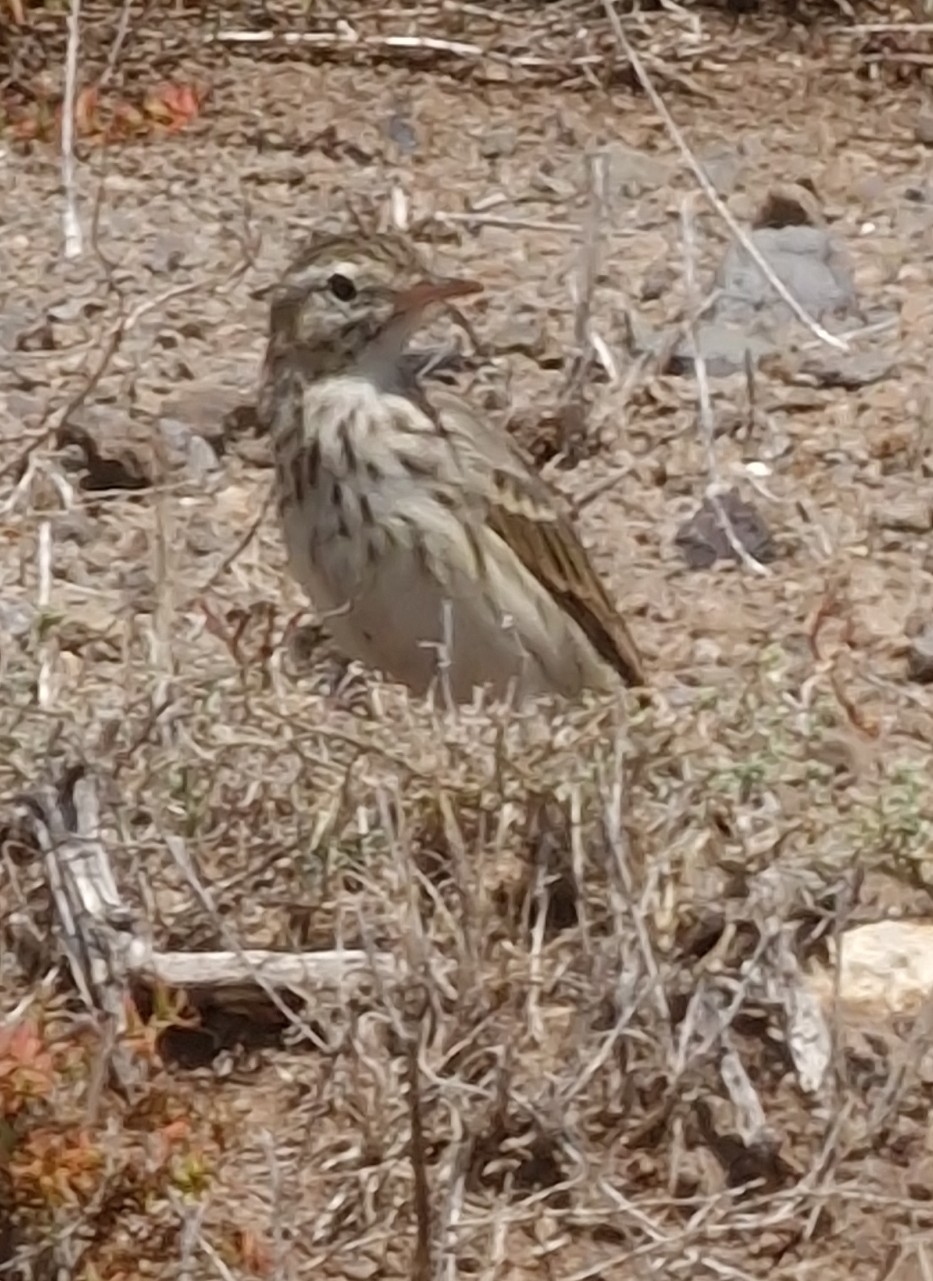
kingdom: Animalia
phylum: Chordata
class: Aves
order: Passeriformes
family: Motacillidae
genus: Anthus
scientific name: Anthus berthelotii
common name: Berthelot's pipit
